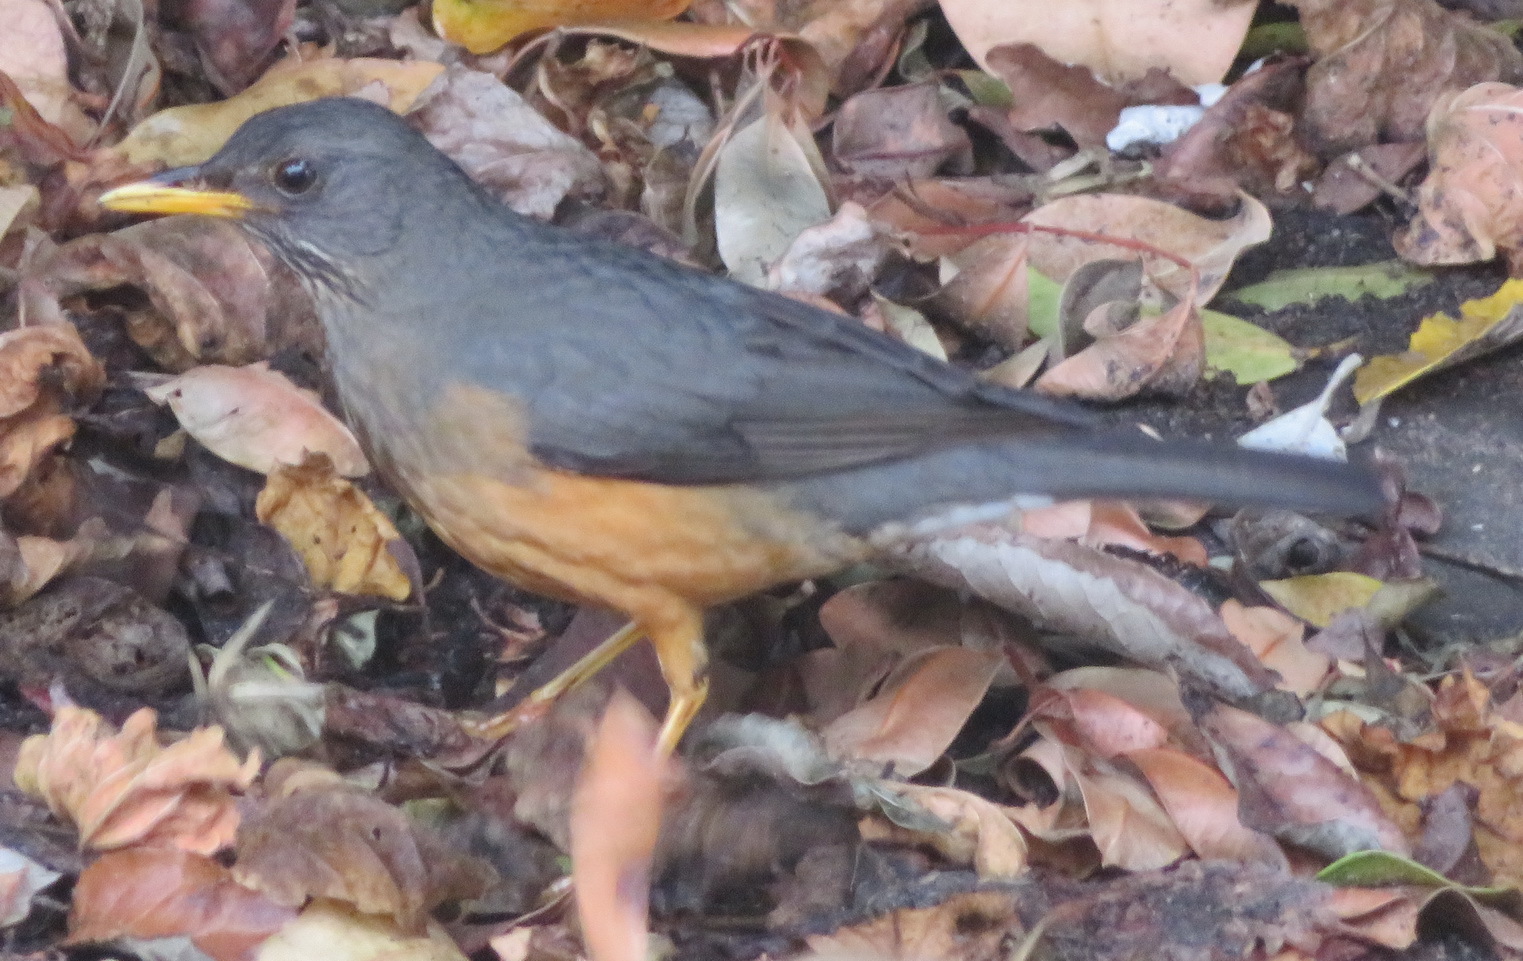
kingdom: Animalia
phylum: Chordata
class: Aves
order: Passeriformes
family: Turdidae
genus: Turdus
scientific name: Turdus olivaceus
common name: Olive thrush
